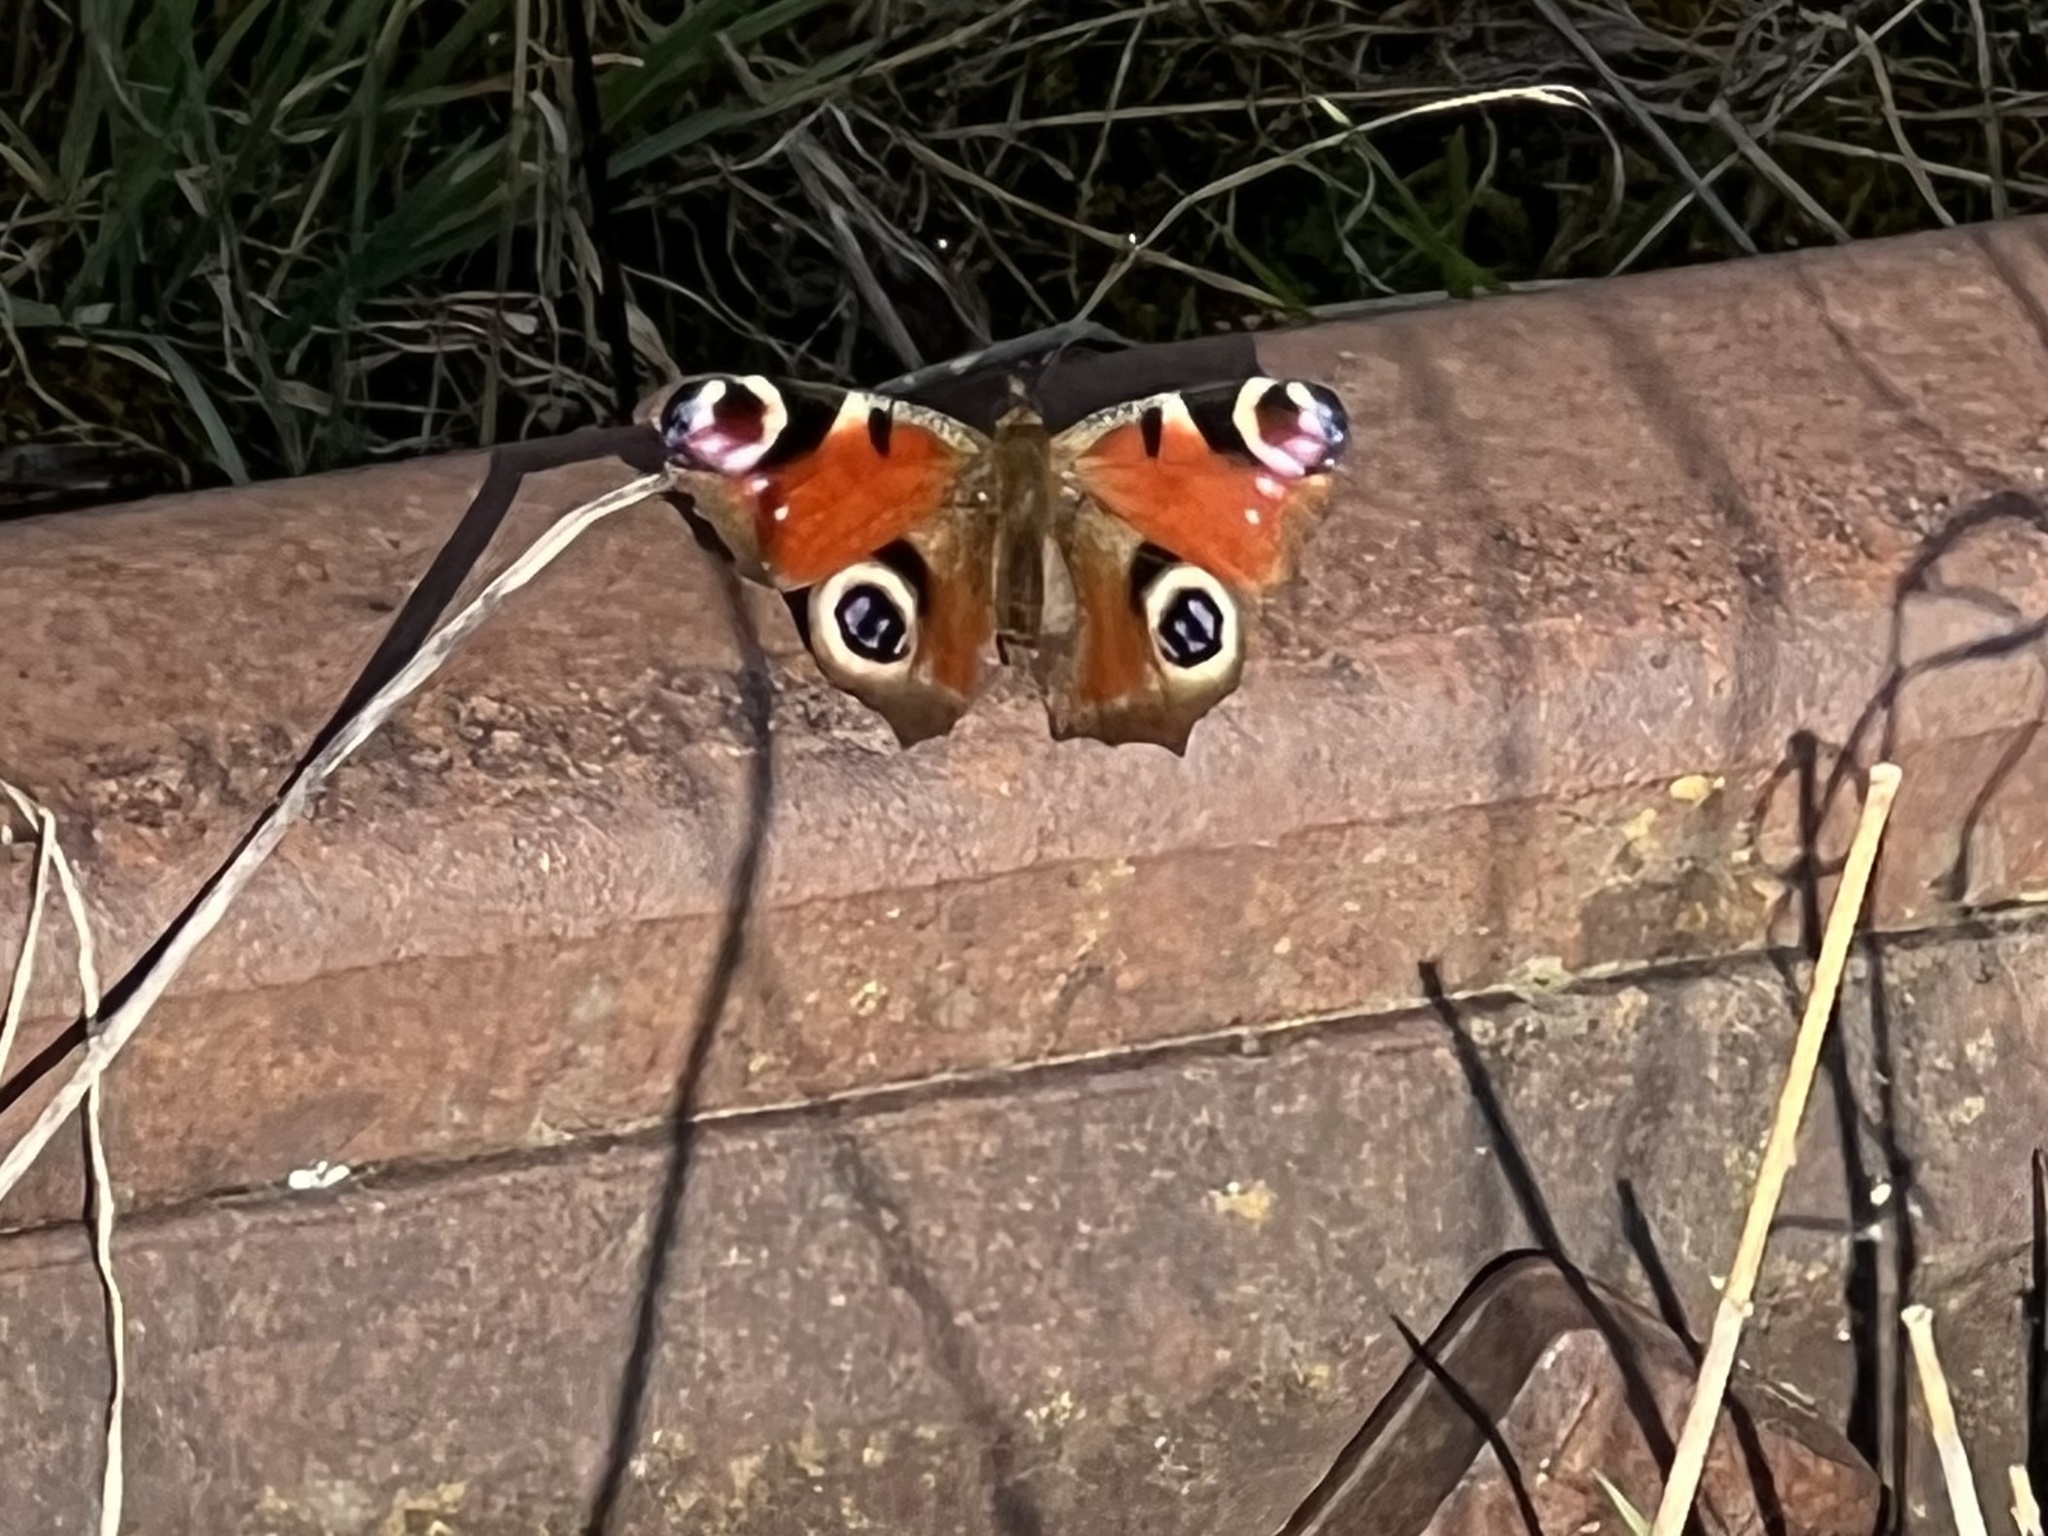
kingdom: Animalia
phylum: Arthropoda
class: Insecta
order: Lepidoptera
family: Nymphalidae
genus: Aglais
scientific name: Aglais io
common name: Peacock
